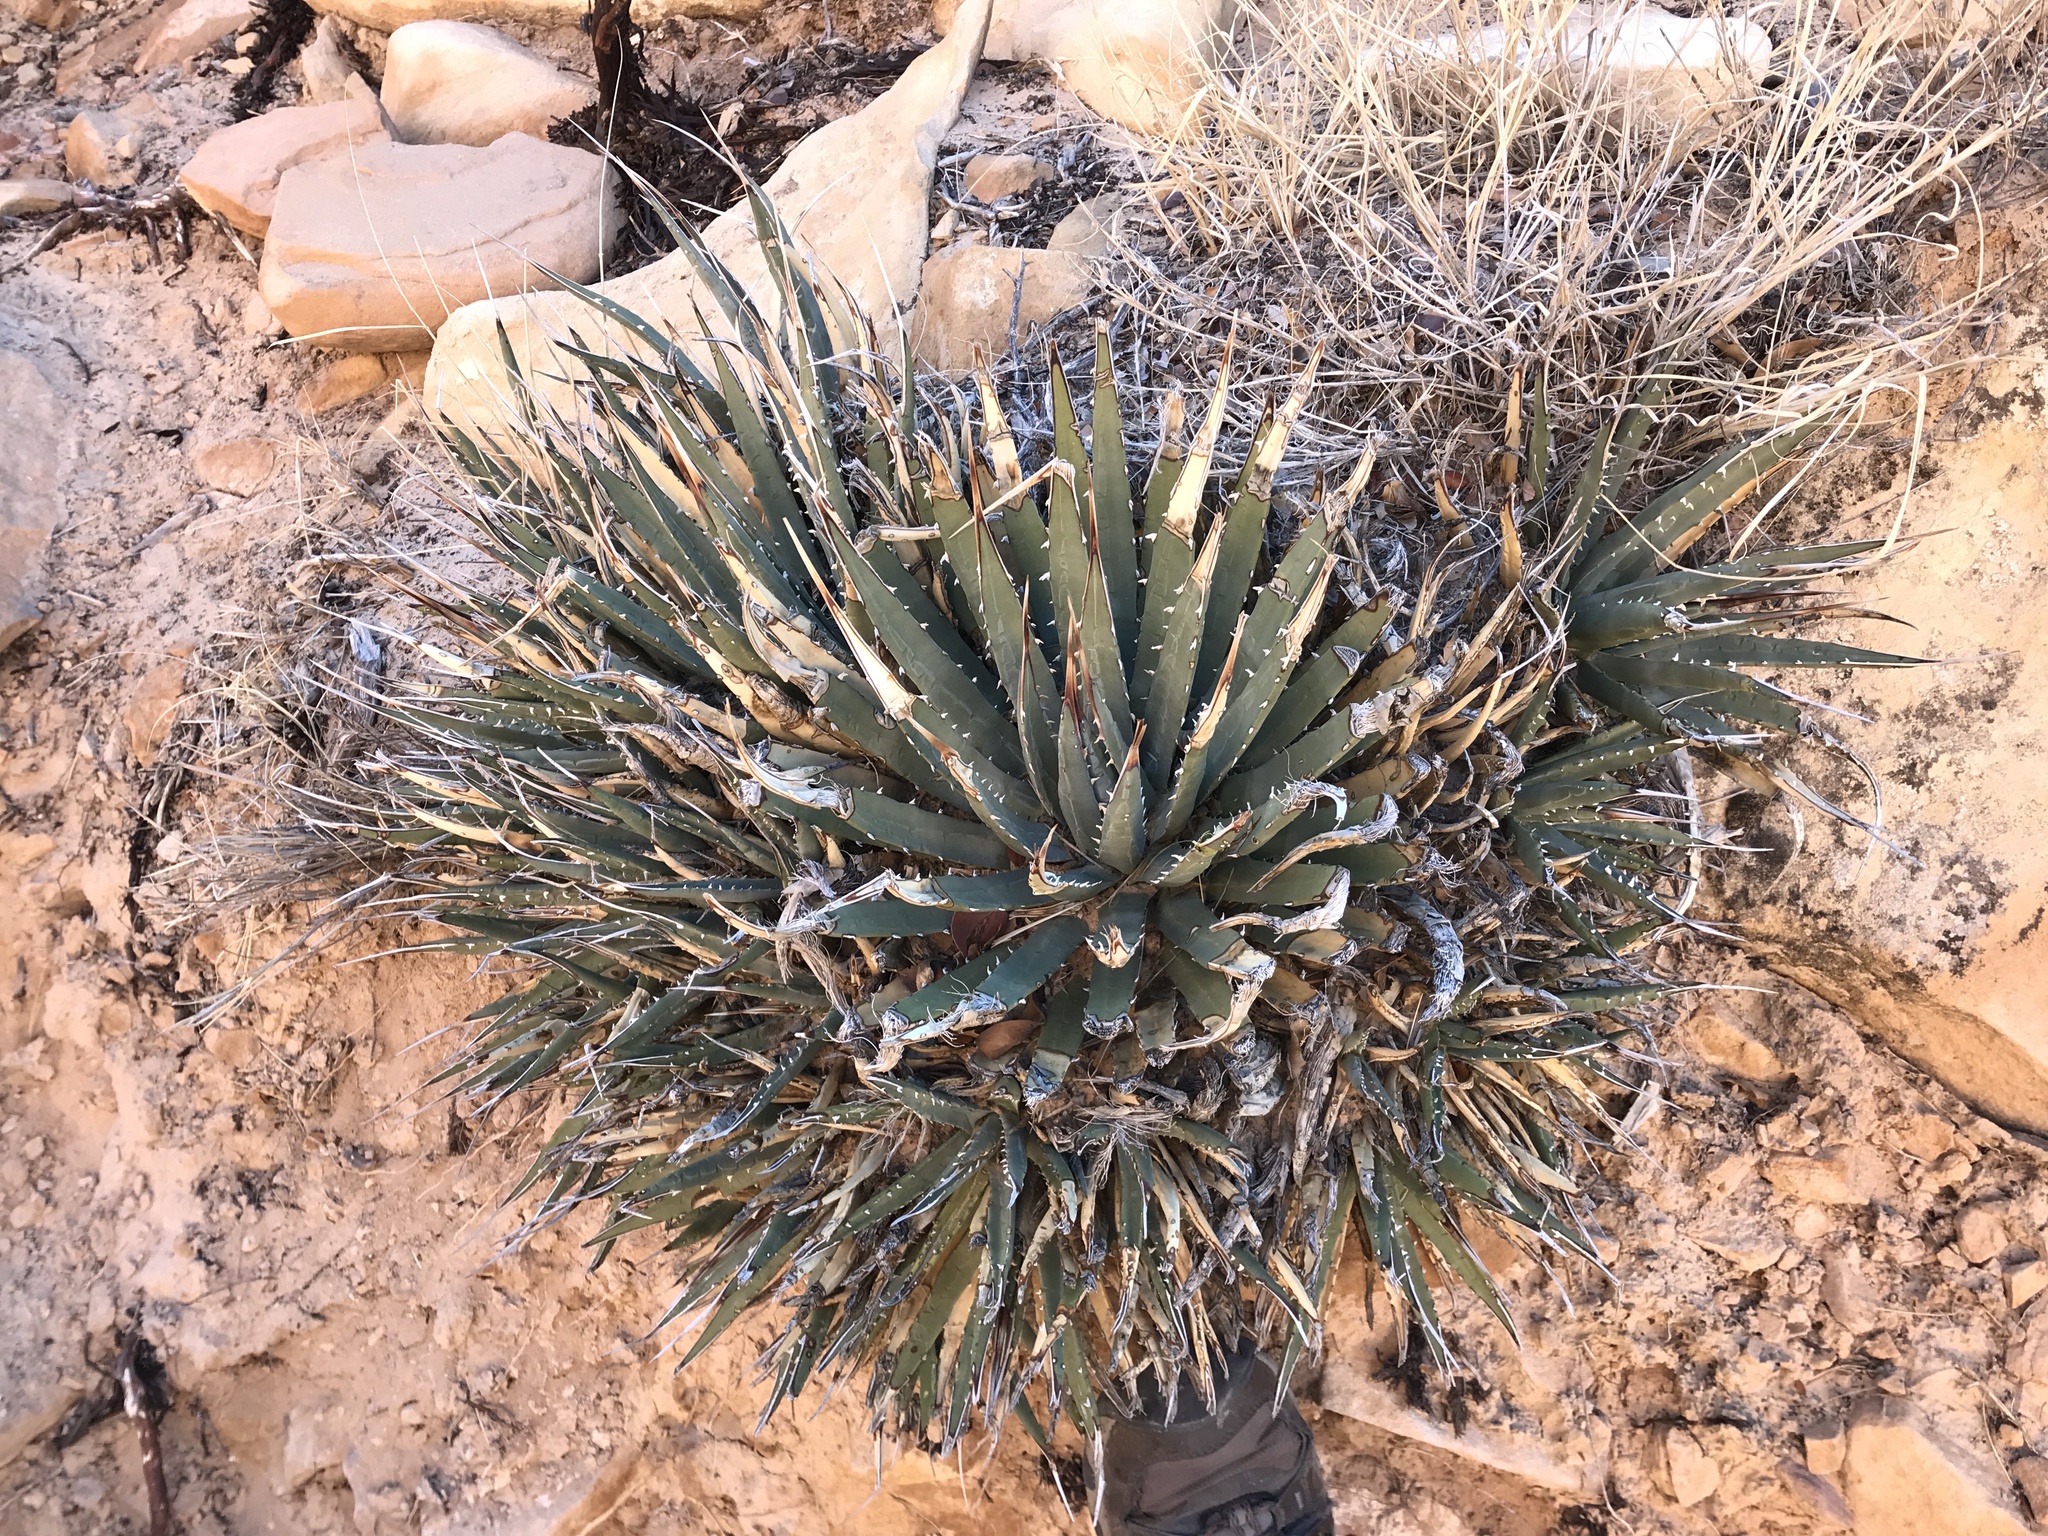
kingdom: Plantae
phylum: Tracheophyta
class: Liliopsida
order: Asparagales
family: Asparagaceae
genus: Agave
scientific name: Agave utahensis
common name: Utah agave
